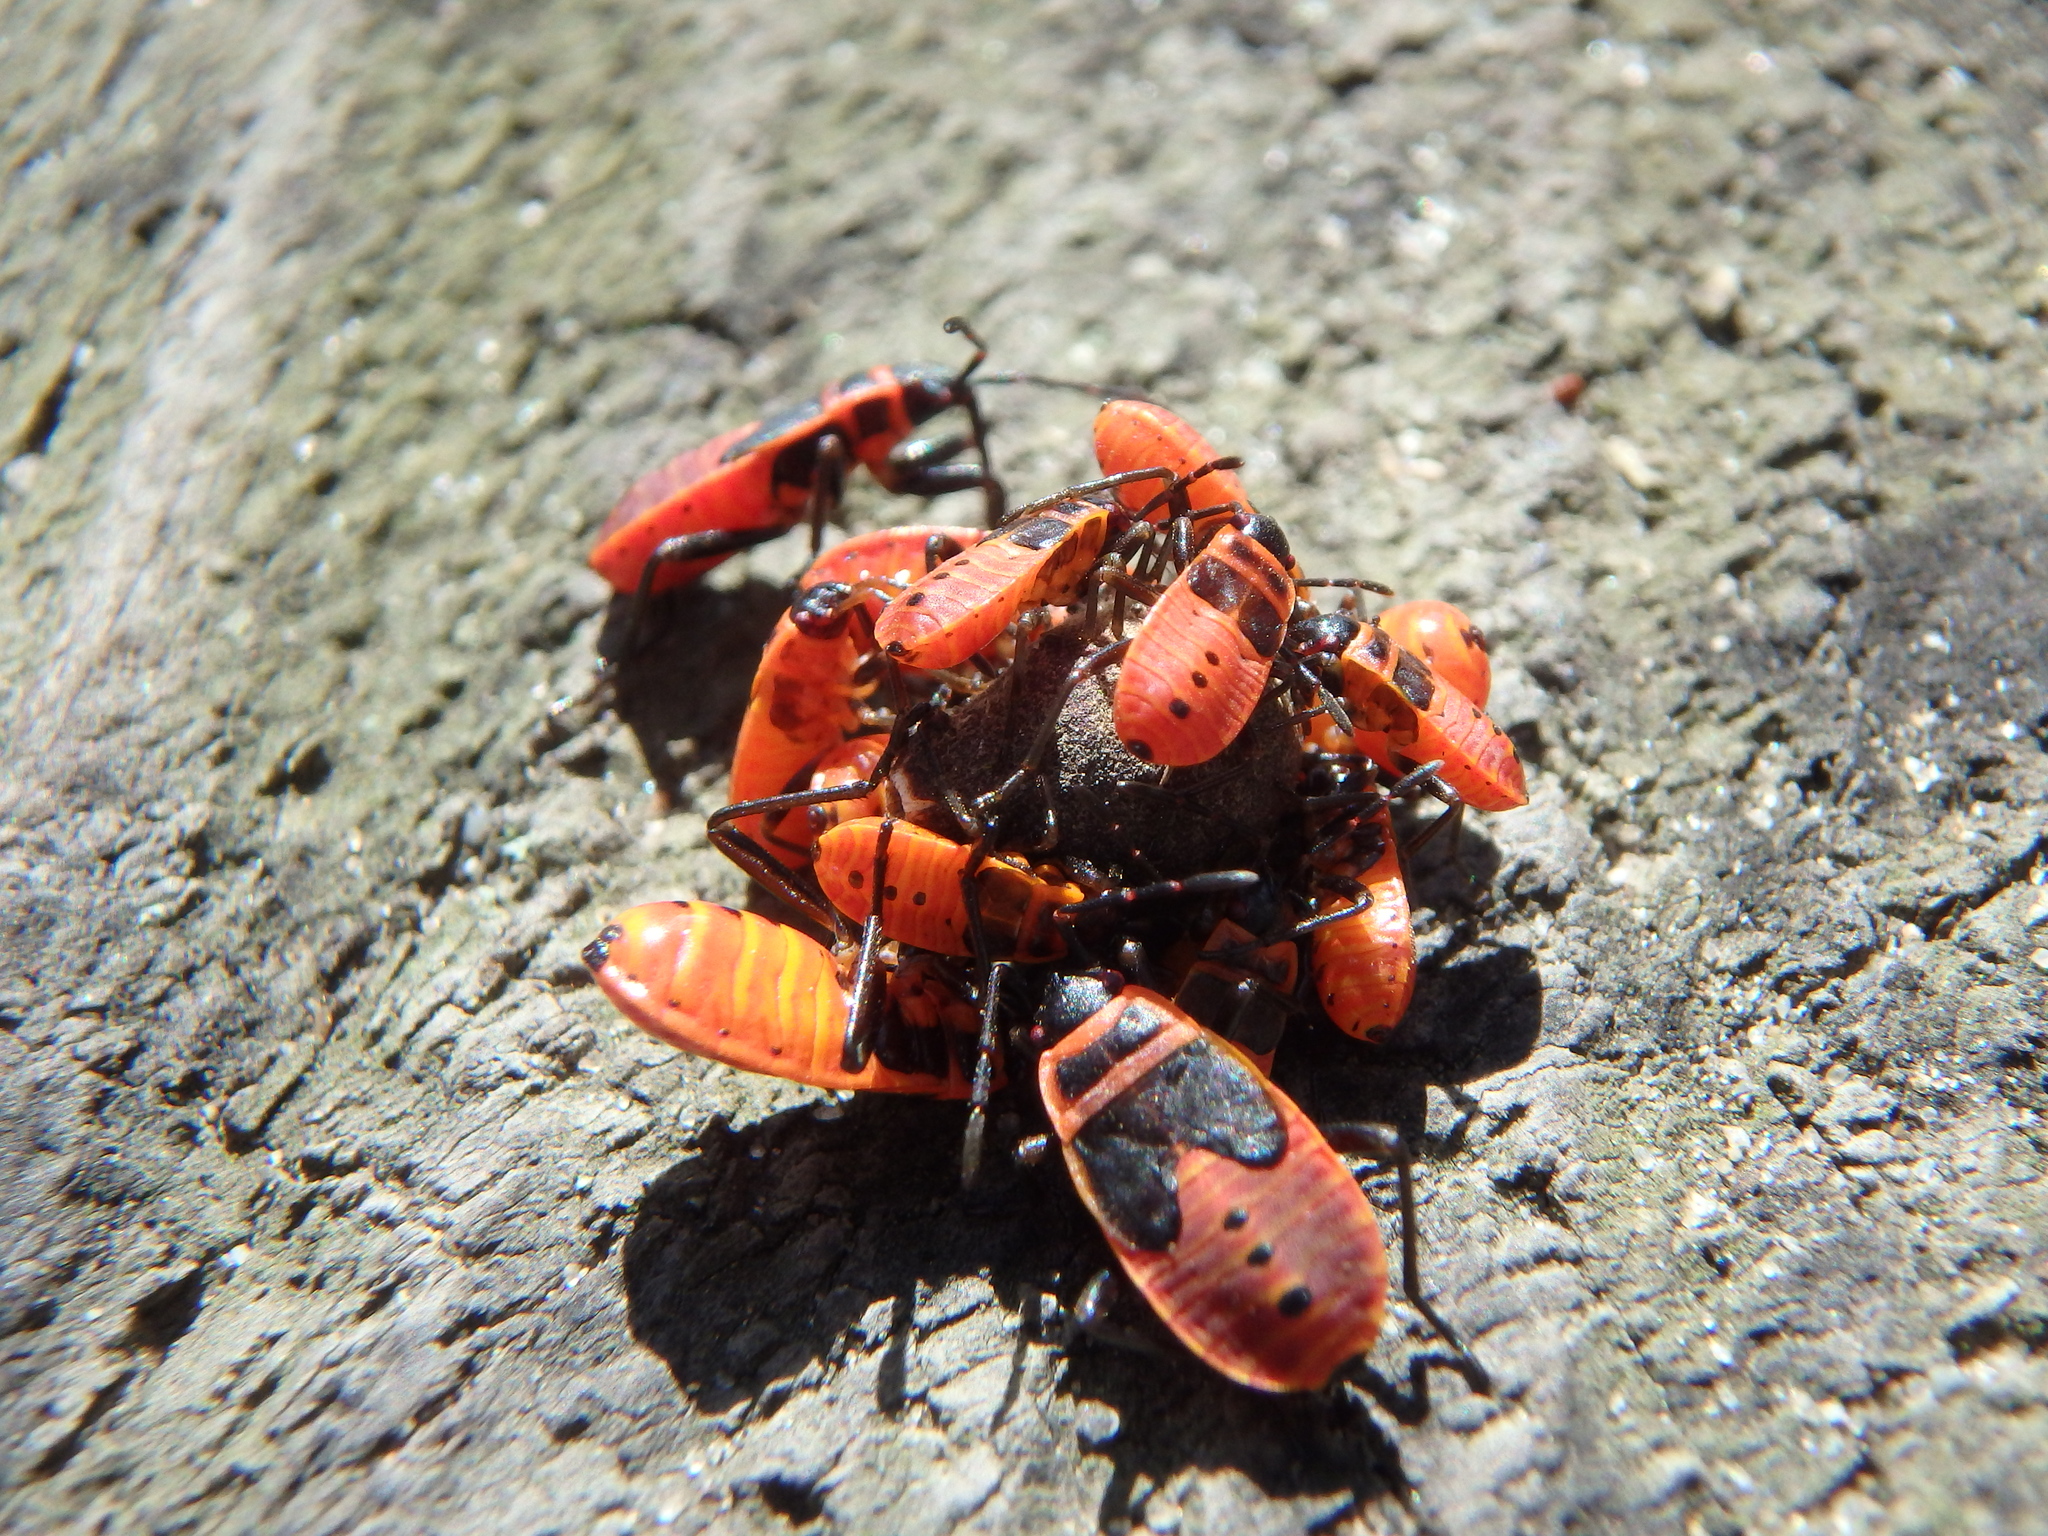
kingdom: Animalia
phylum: Arthropoda
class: Insecta
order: Hemiptera
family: Pyrrhocoridae
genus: Pyrrhocoris
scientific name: Pyrrhocoris apterus
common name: Firebug
